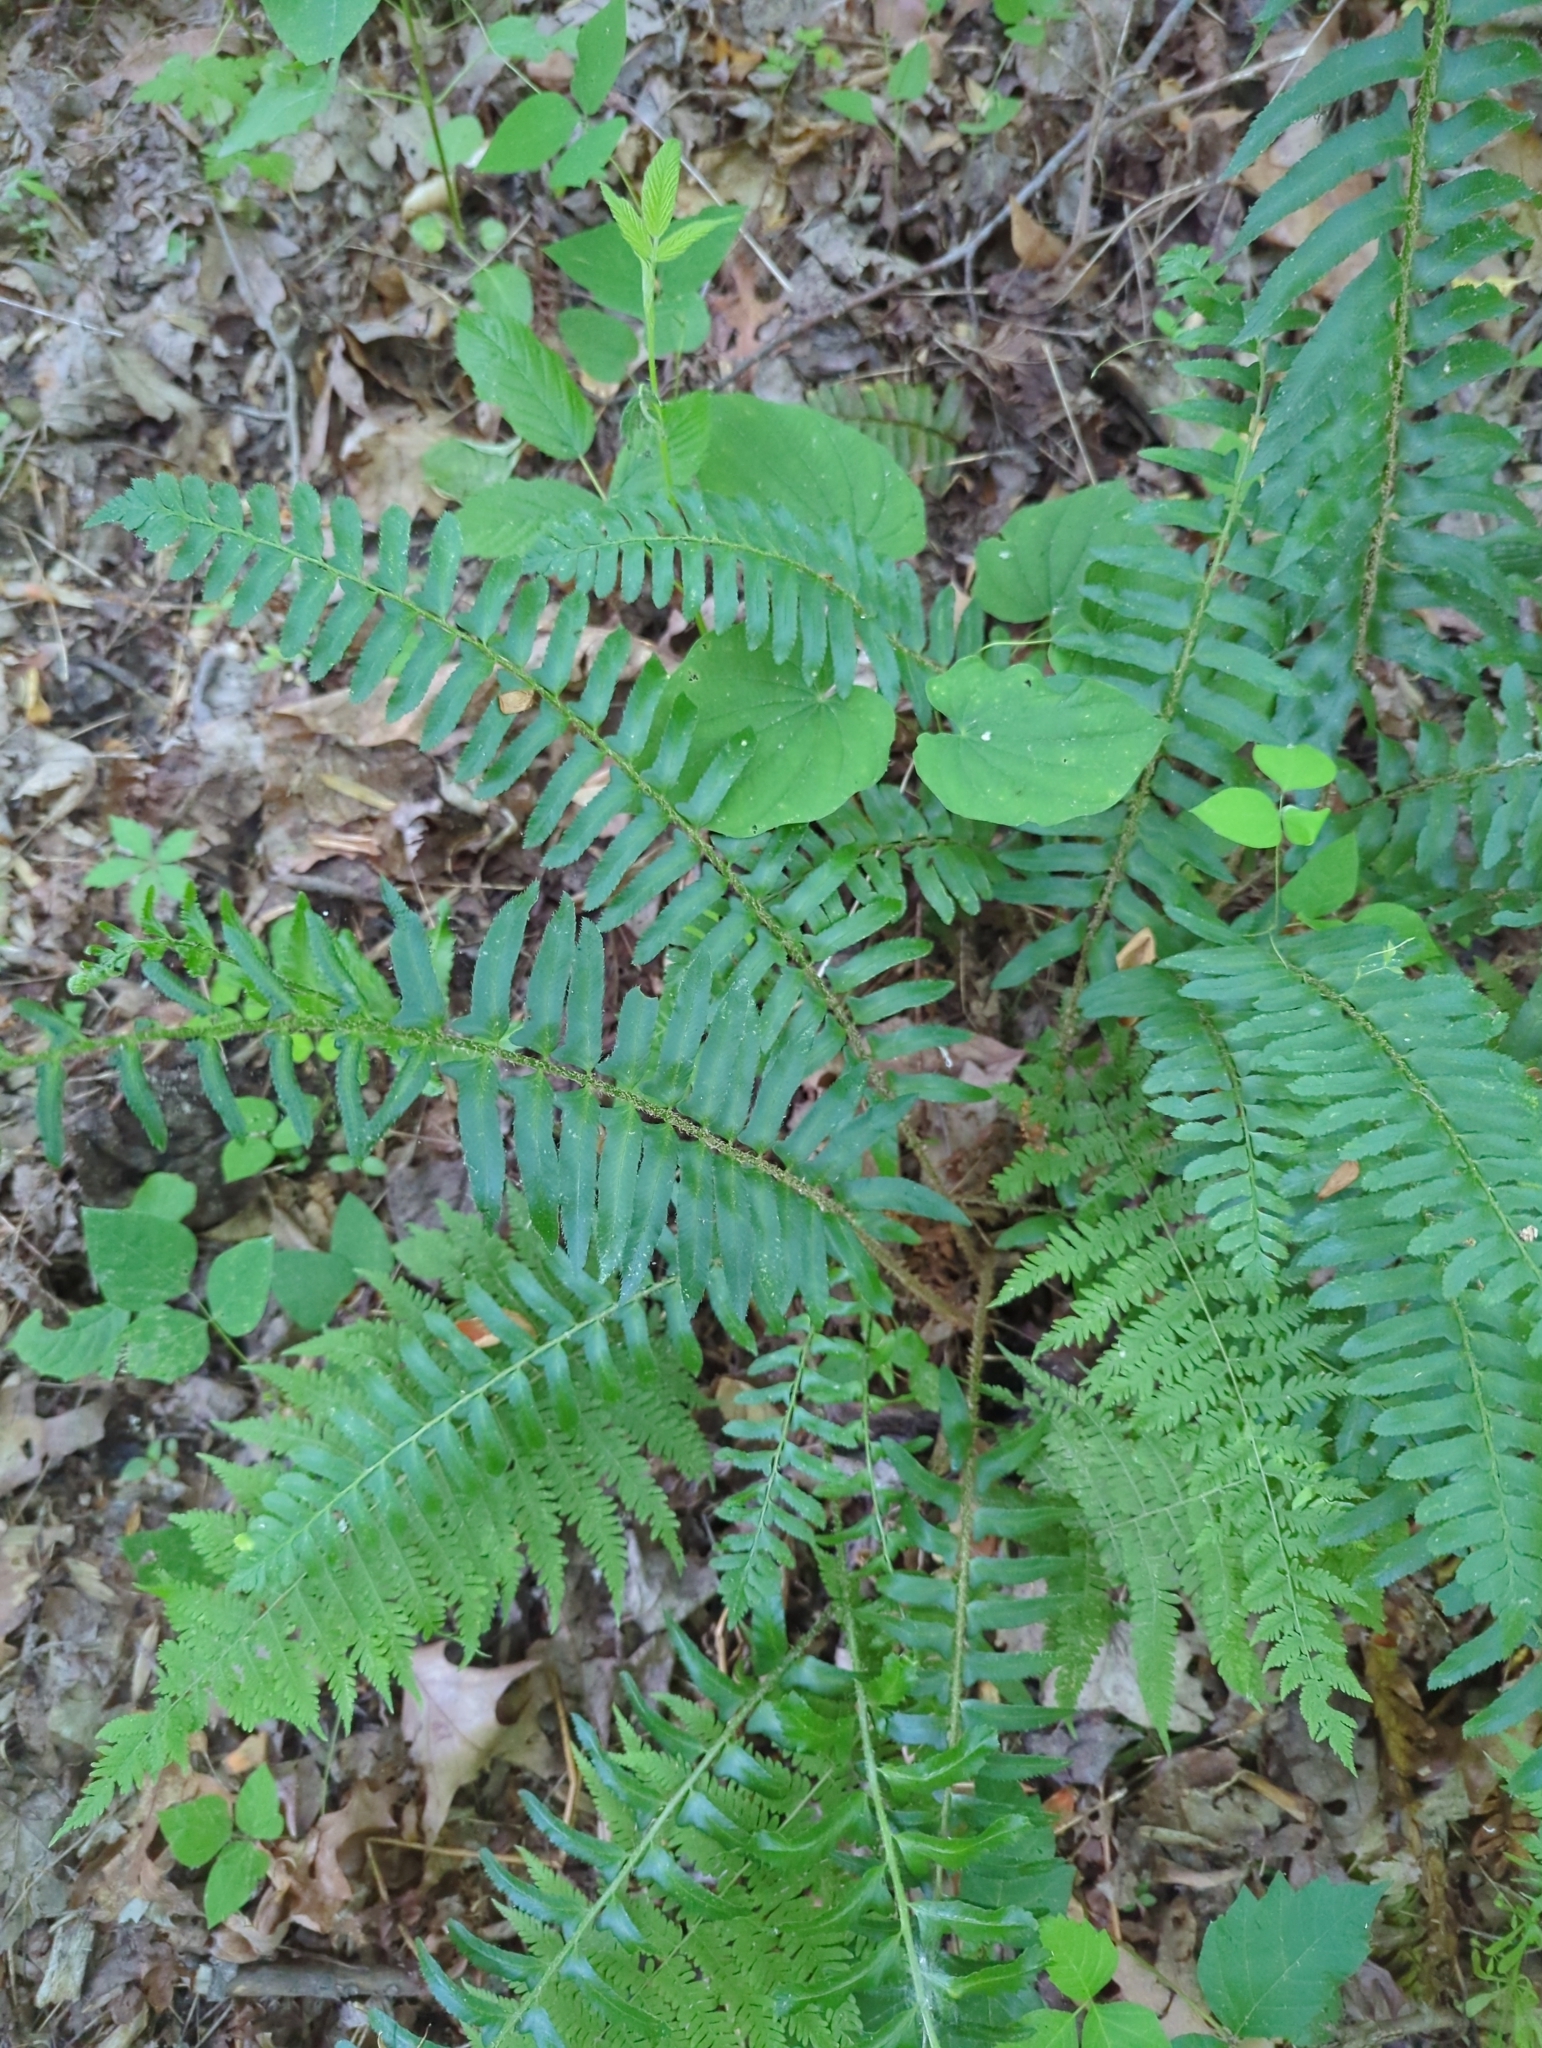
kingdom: Plantae
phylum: Tracheophyta
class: Polypodiopsida
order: Polypodiales
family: Dryopteridaceae
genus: Polystichum
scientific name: Polystichum acrostichoides
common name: Christmas fern
